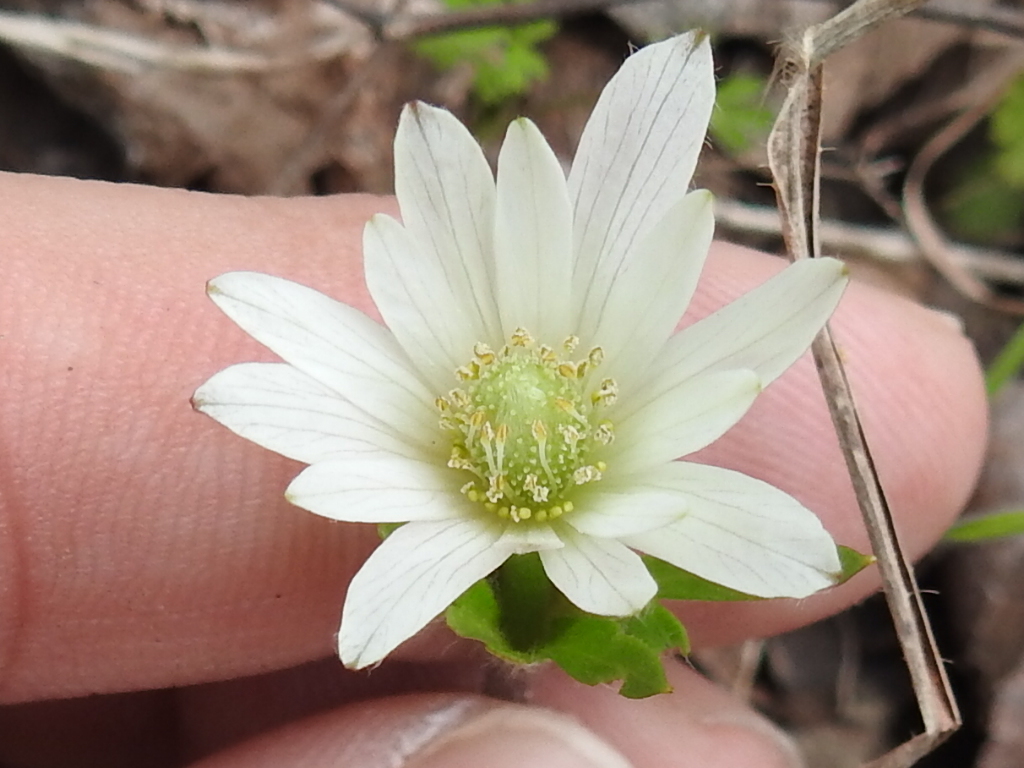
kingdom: Plantae
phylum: Tracheophyta
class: Magnoliopsida
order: Ranunculales
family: Ranunculaceae
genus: Anemone
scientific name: Anemone berlandieri
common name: Ten-petal anemone
